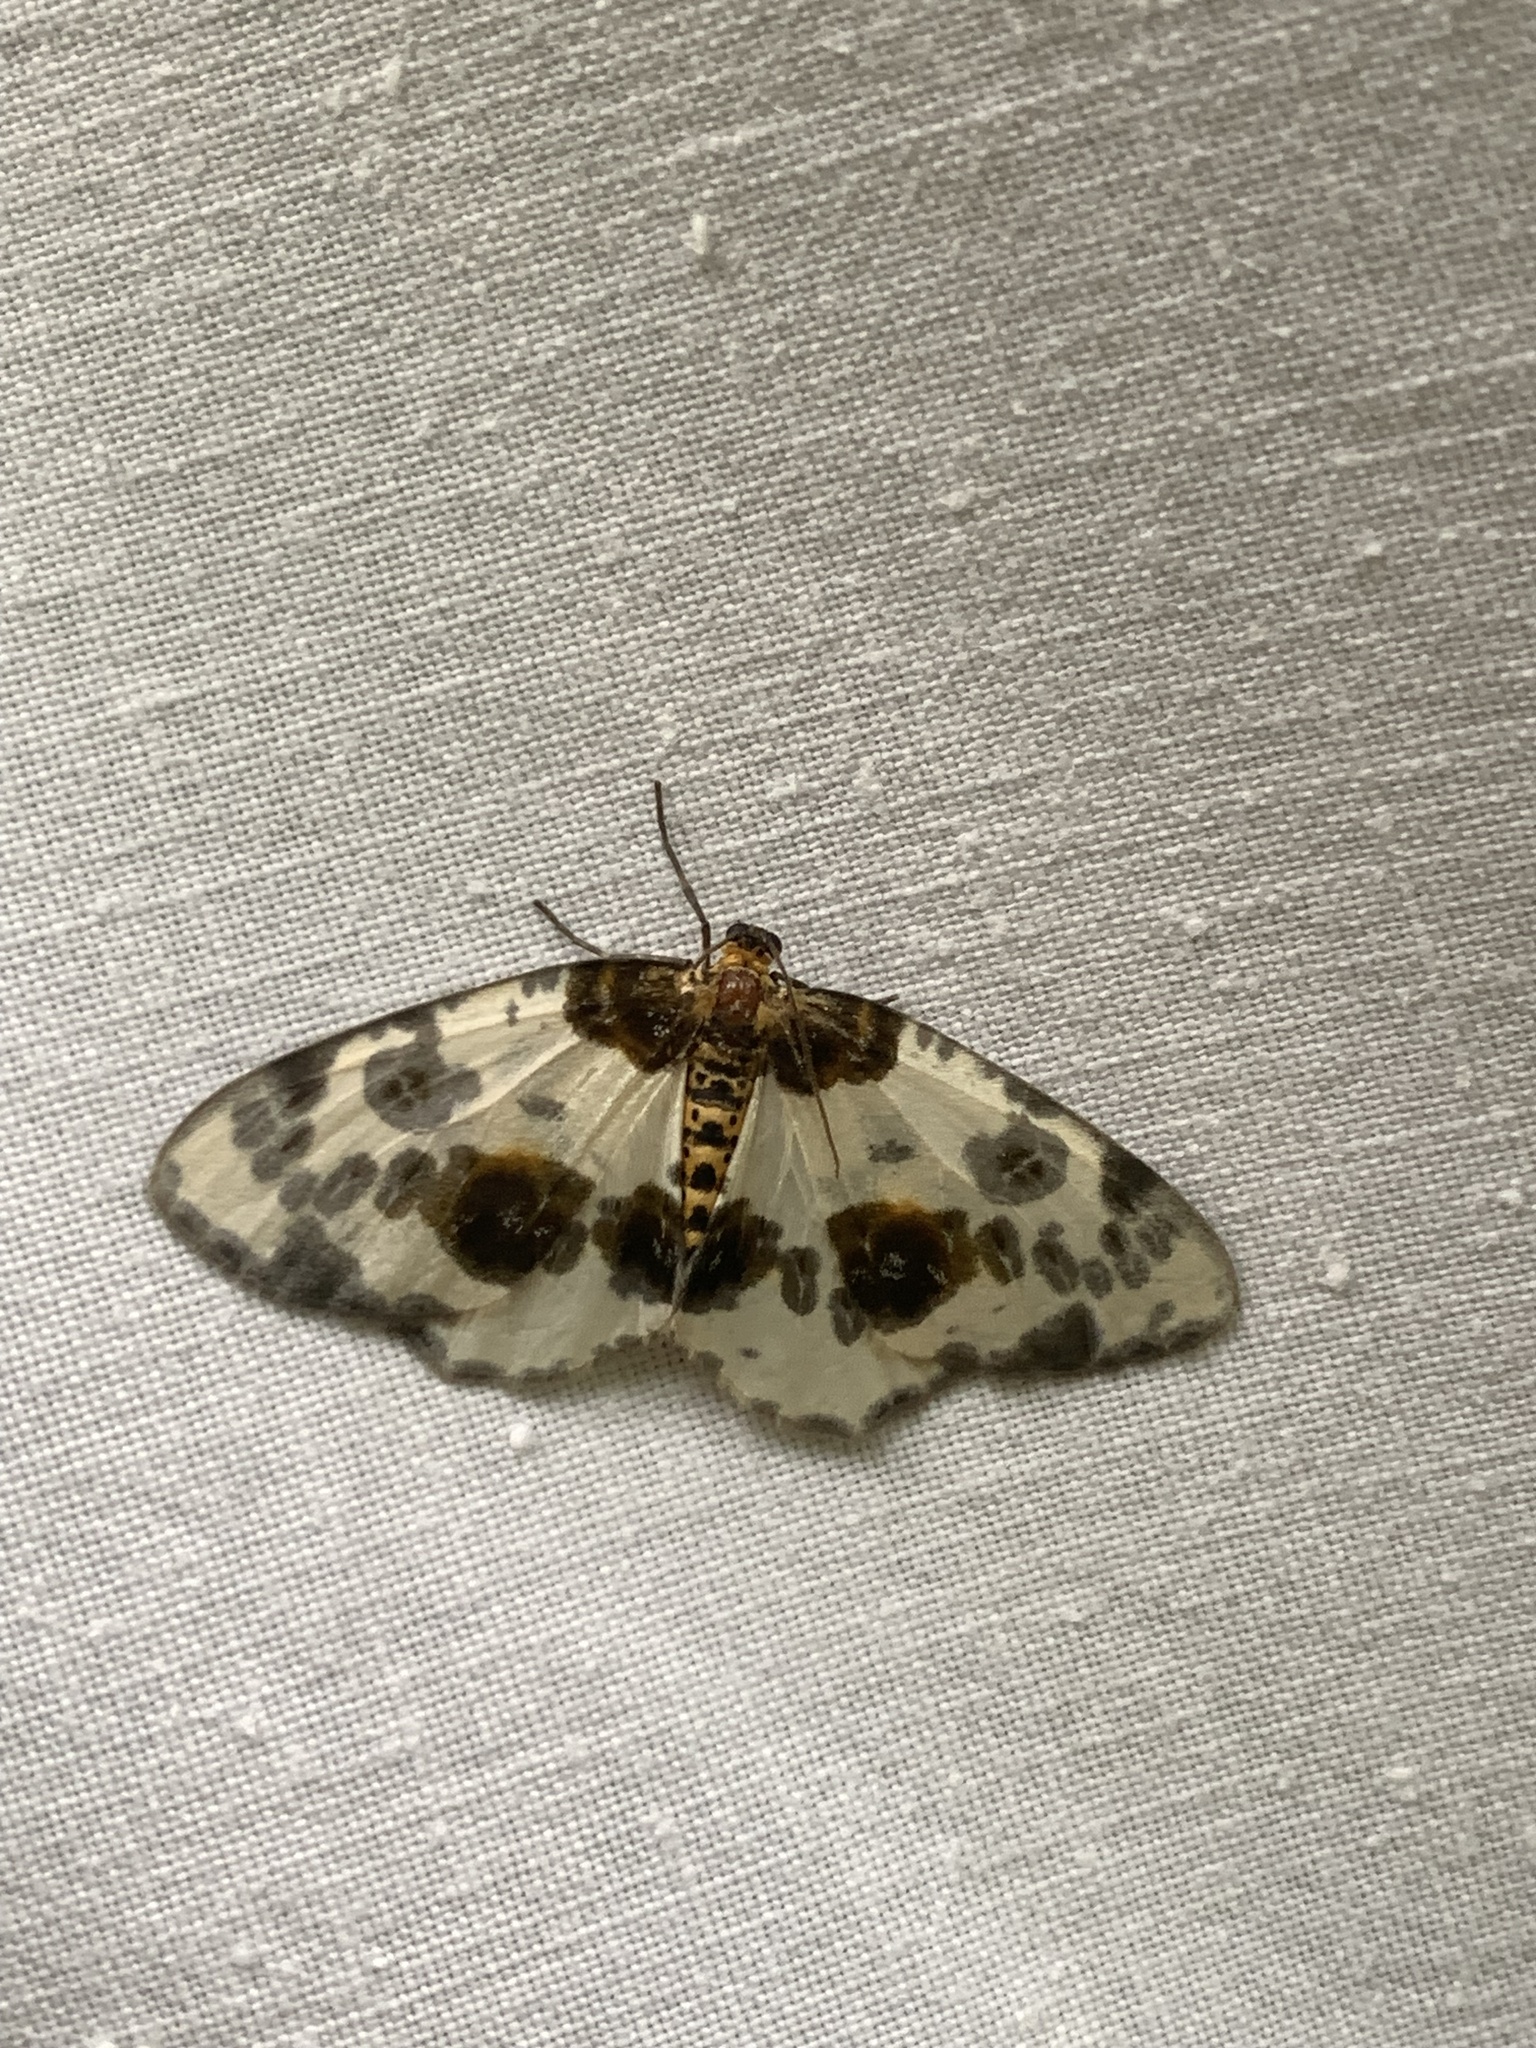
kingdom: Animalia
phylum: Arthropoda
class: Insecta
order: Lepidoptera
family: Geometridae
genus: Abraxas
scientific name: Abraxas sylvata
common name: Clouded magpie
